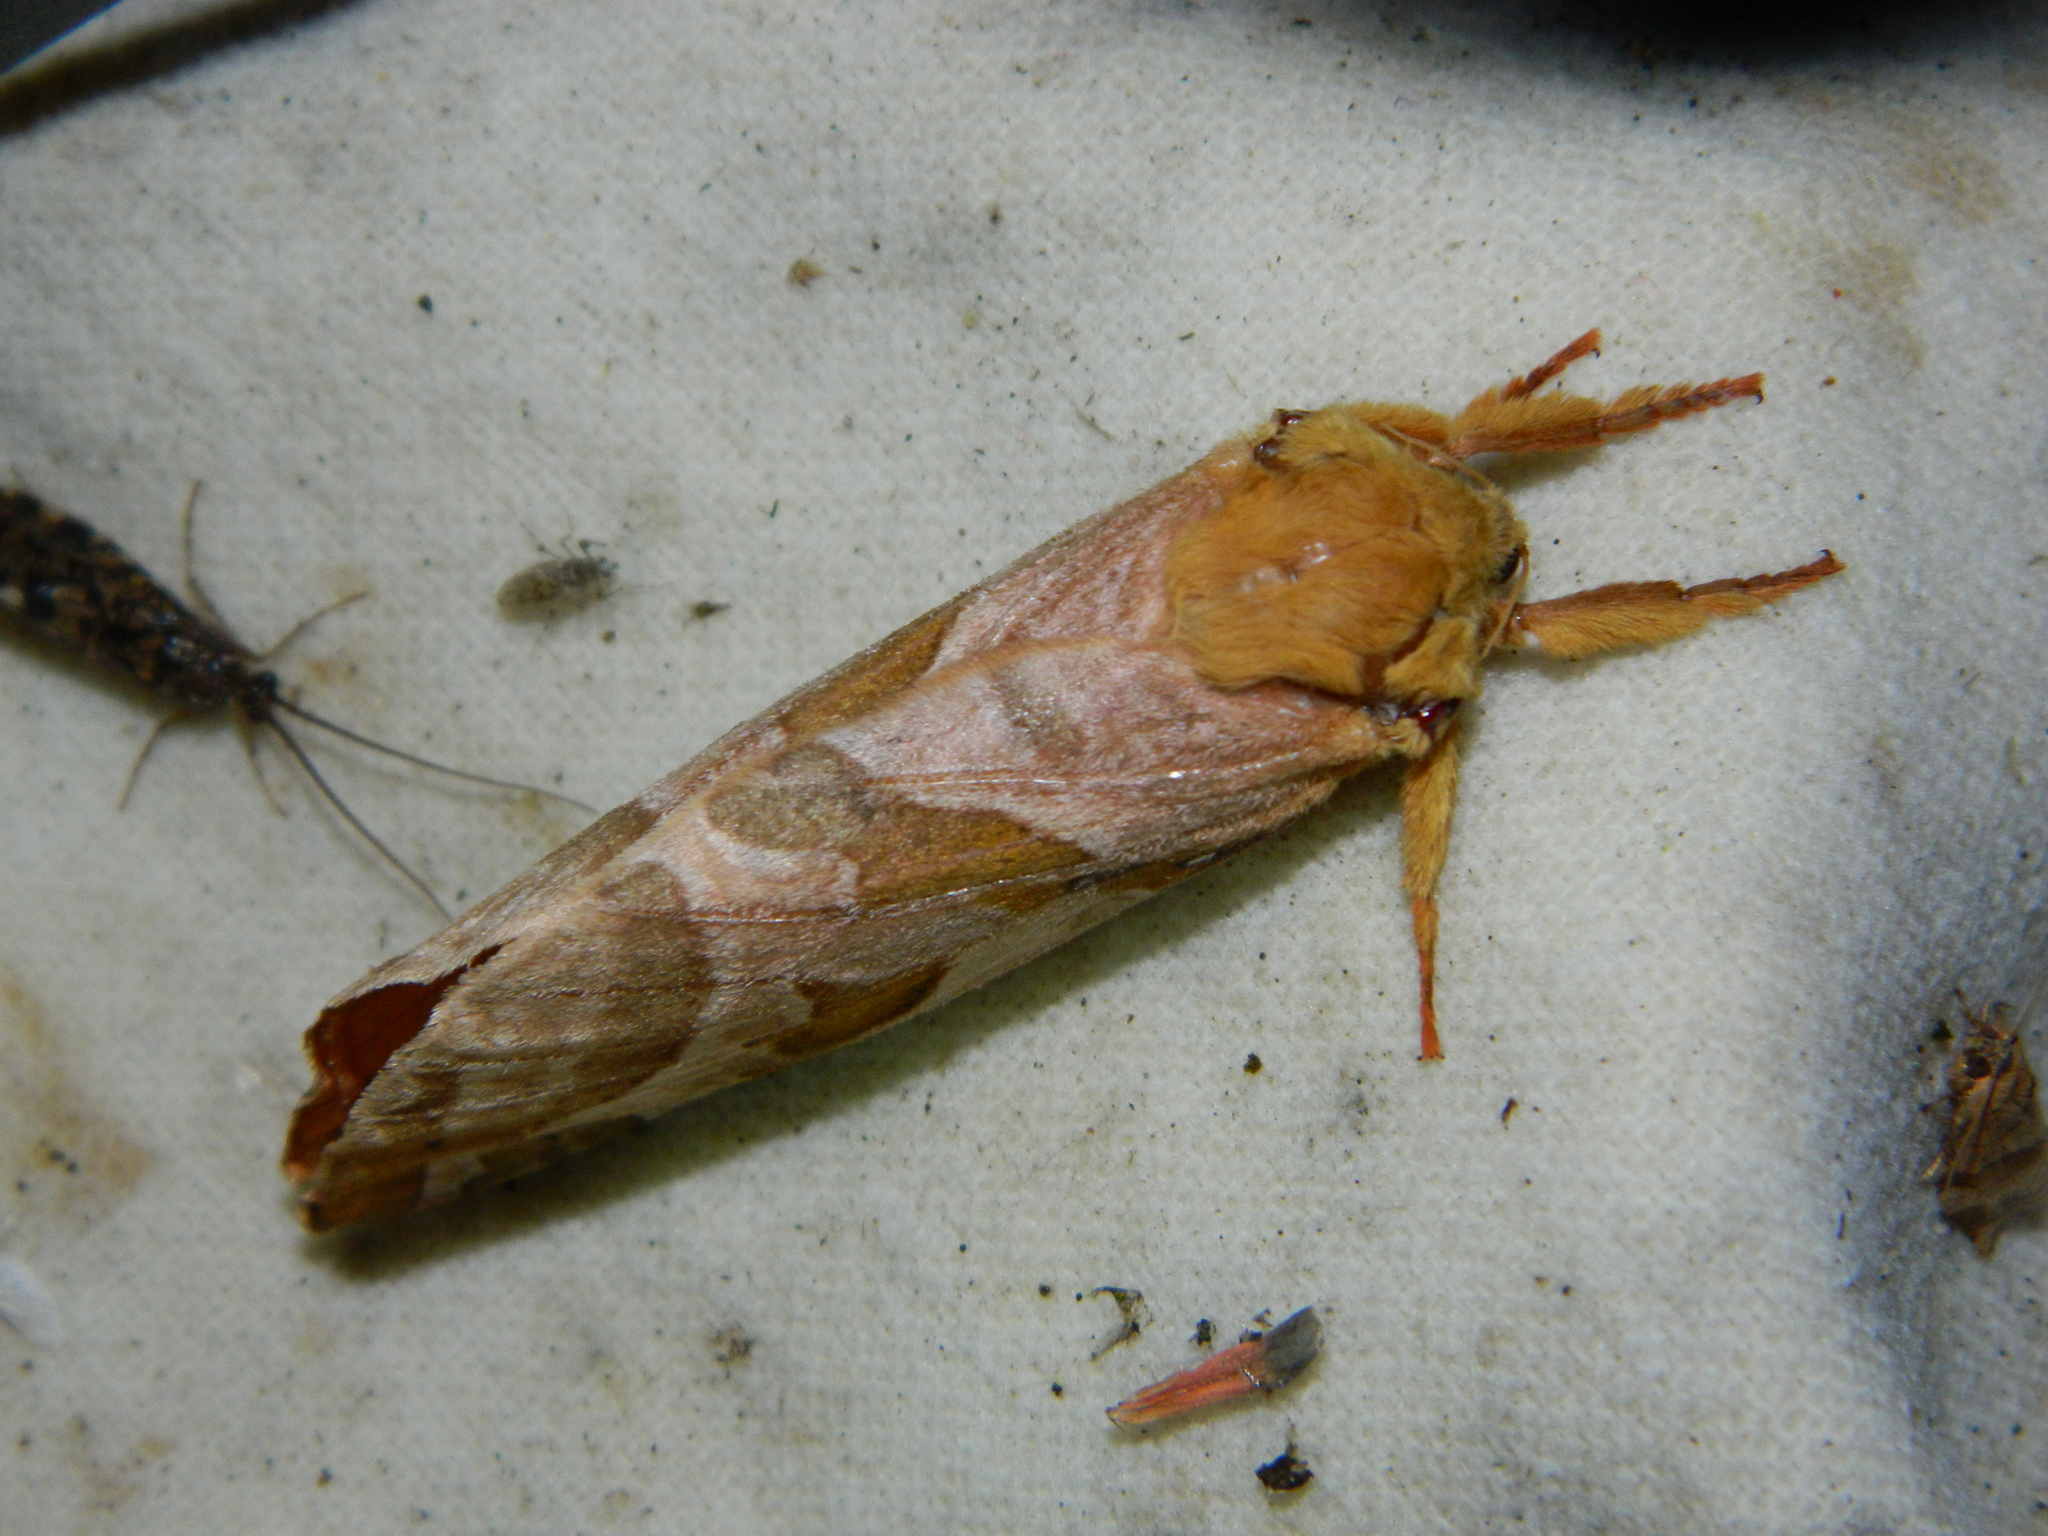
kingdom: Animalia
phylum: Arthropoda
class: Insecta
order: Lepidoptera
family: Hepialidae
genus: Sthenopis
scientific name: Sthenopis purpurascens
